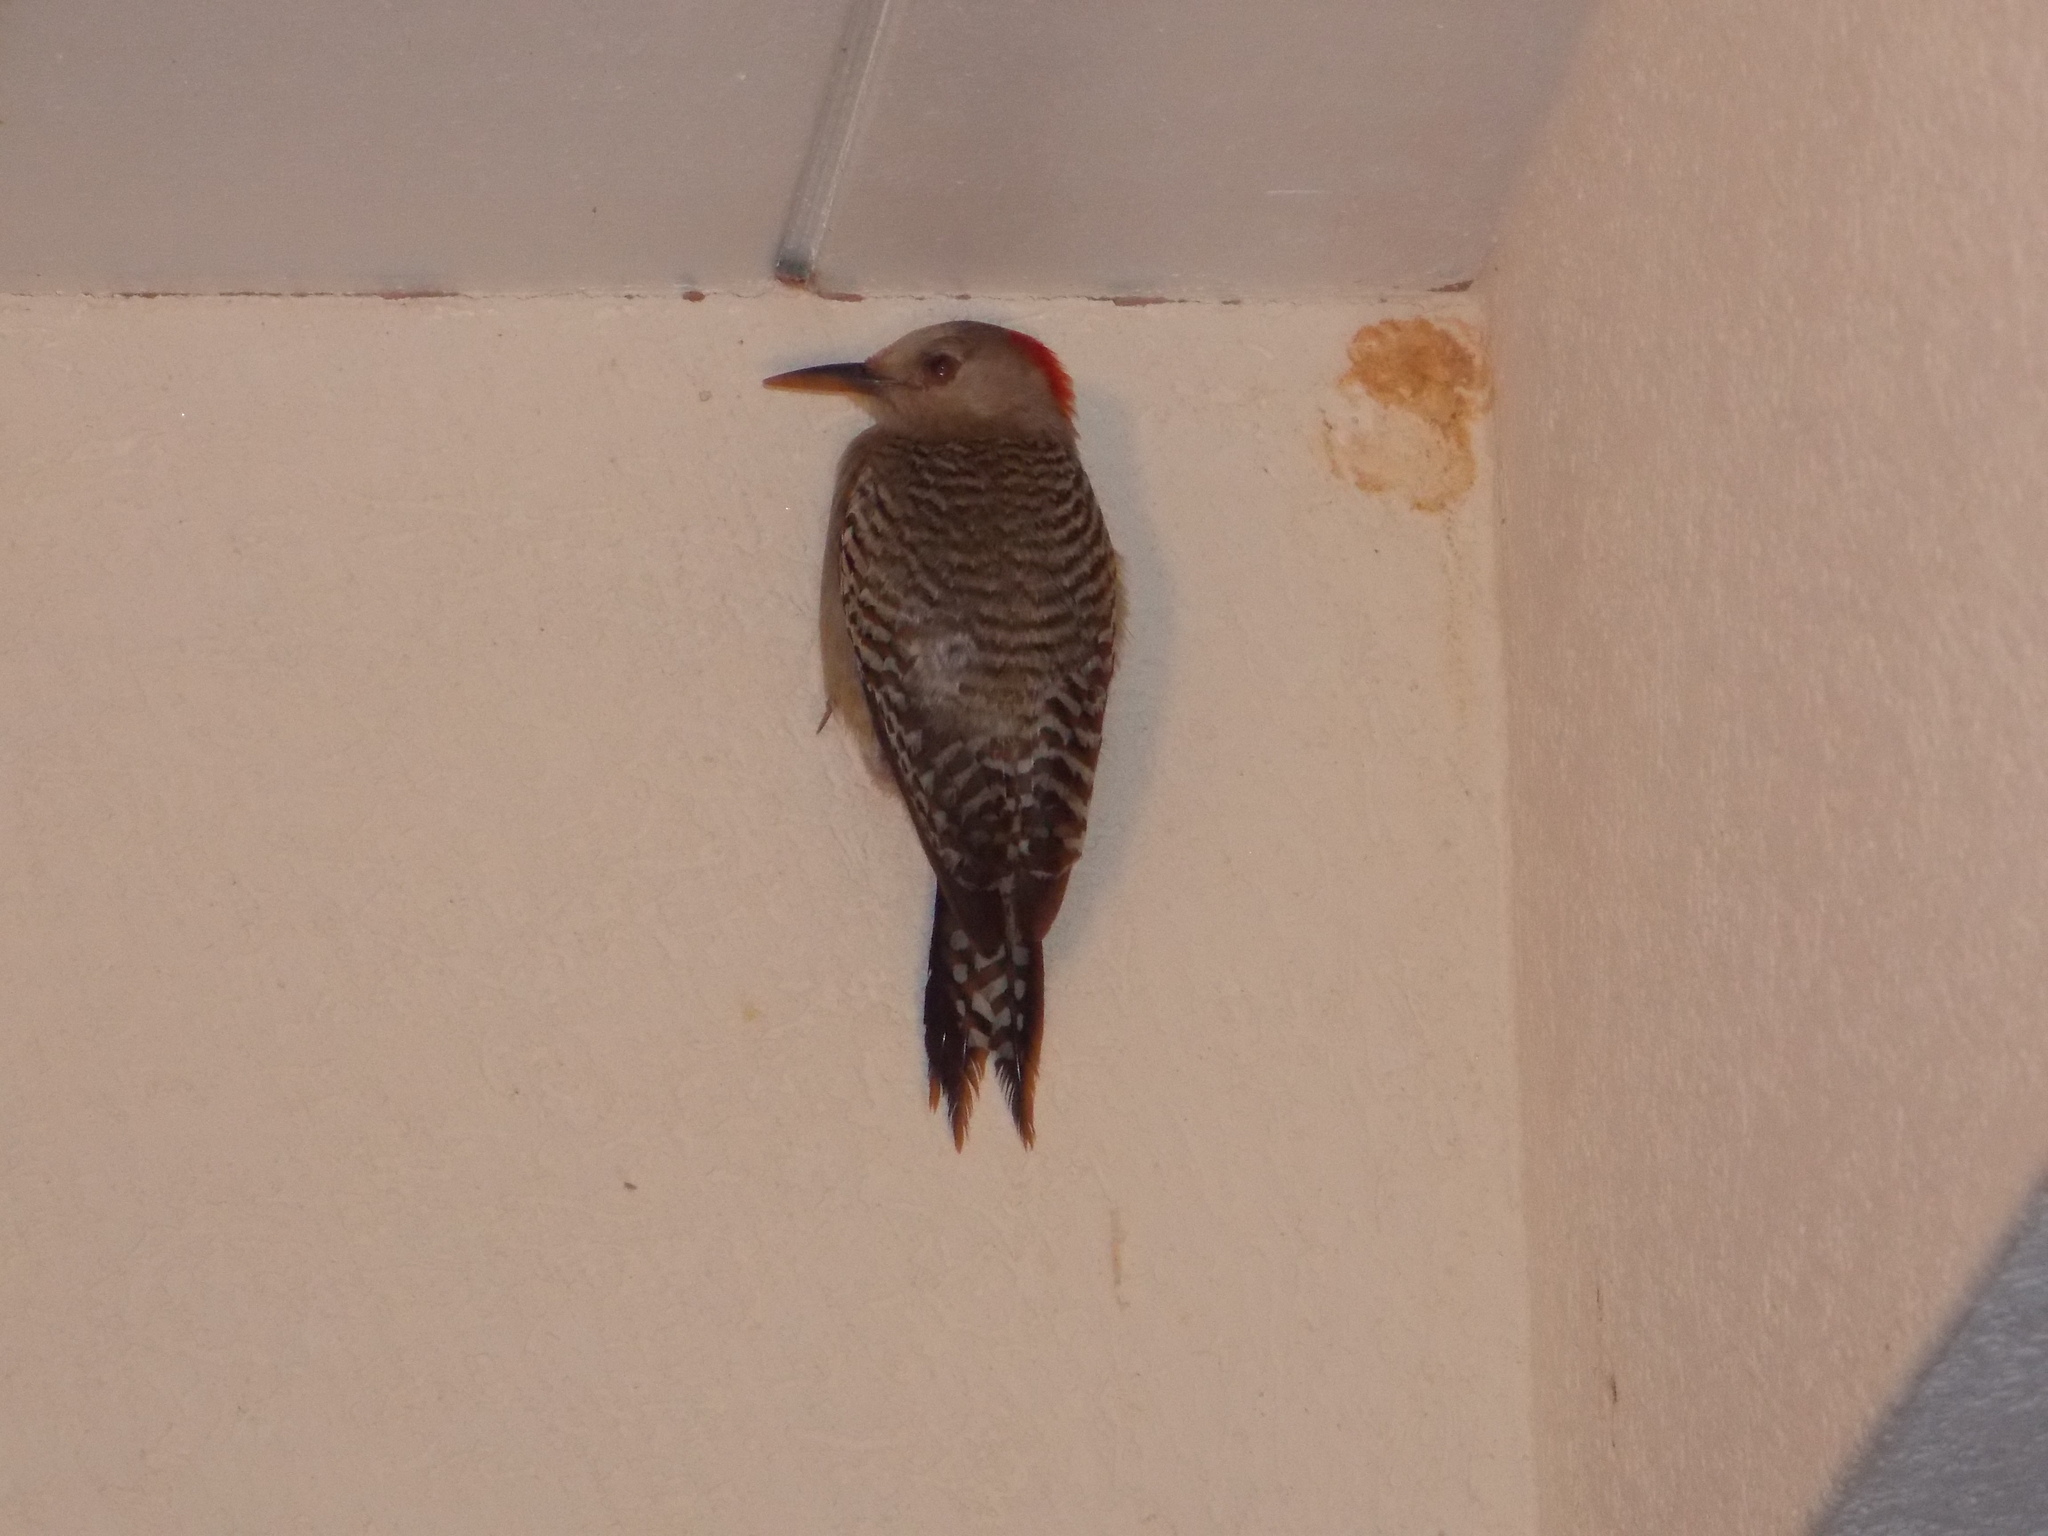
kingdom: Animalia
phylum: Chordata
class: Aves
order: Piciformes
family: Picidae
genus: Melanerpes
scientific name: Melanerpes superciliaris
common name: West indian woodpecker
